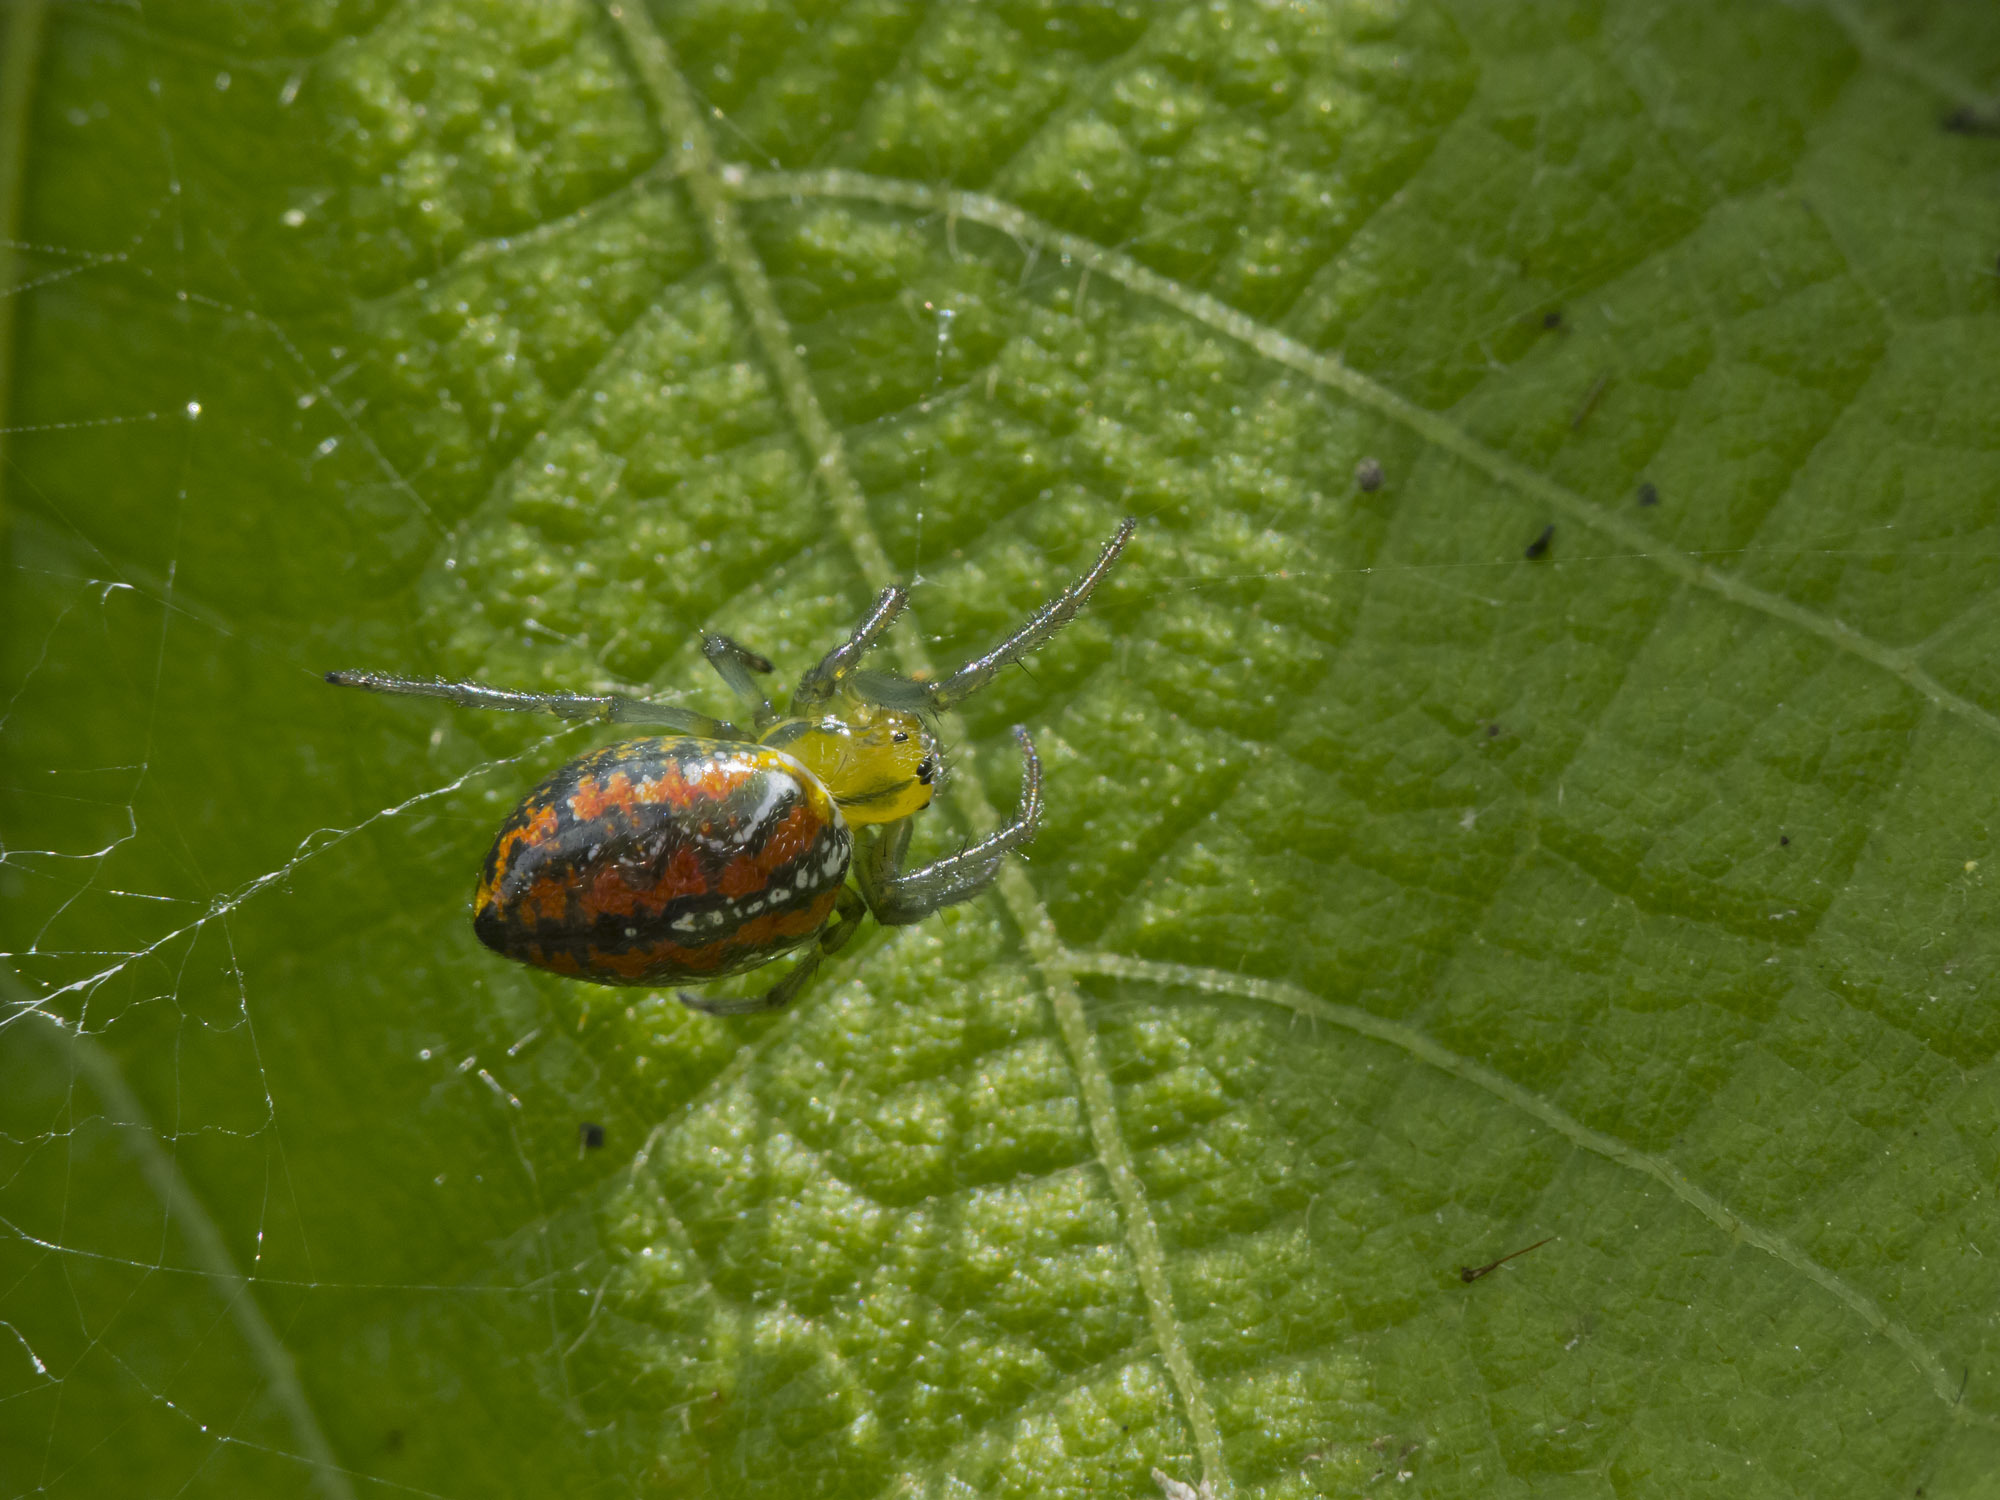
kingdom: Animalia
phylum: Arthropoda
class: Arachnida
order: Araneae
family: Araneidae
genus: Alpaida
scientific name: Alpaida variabilis
